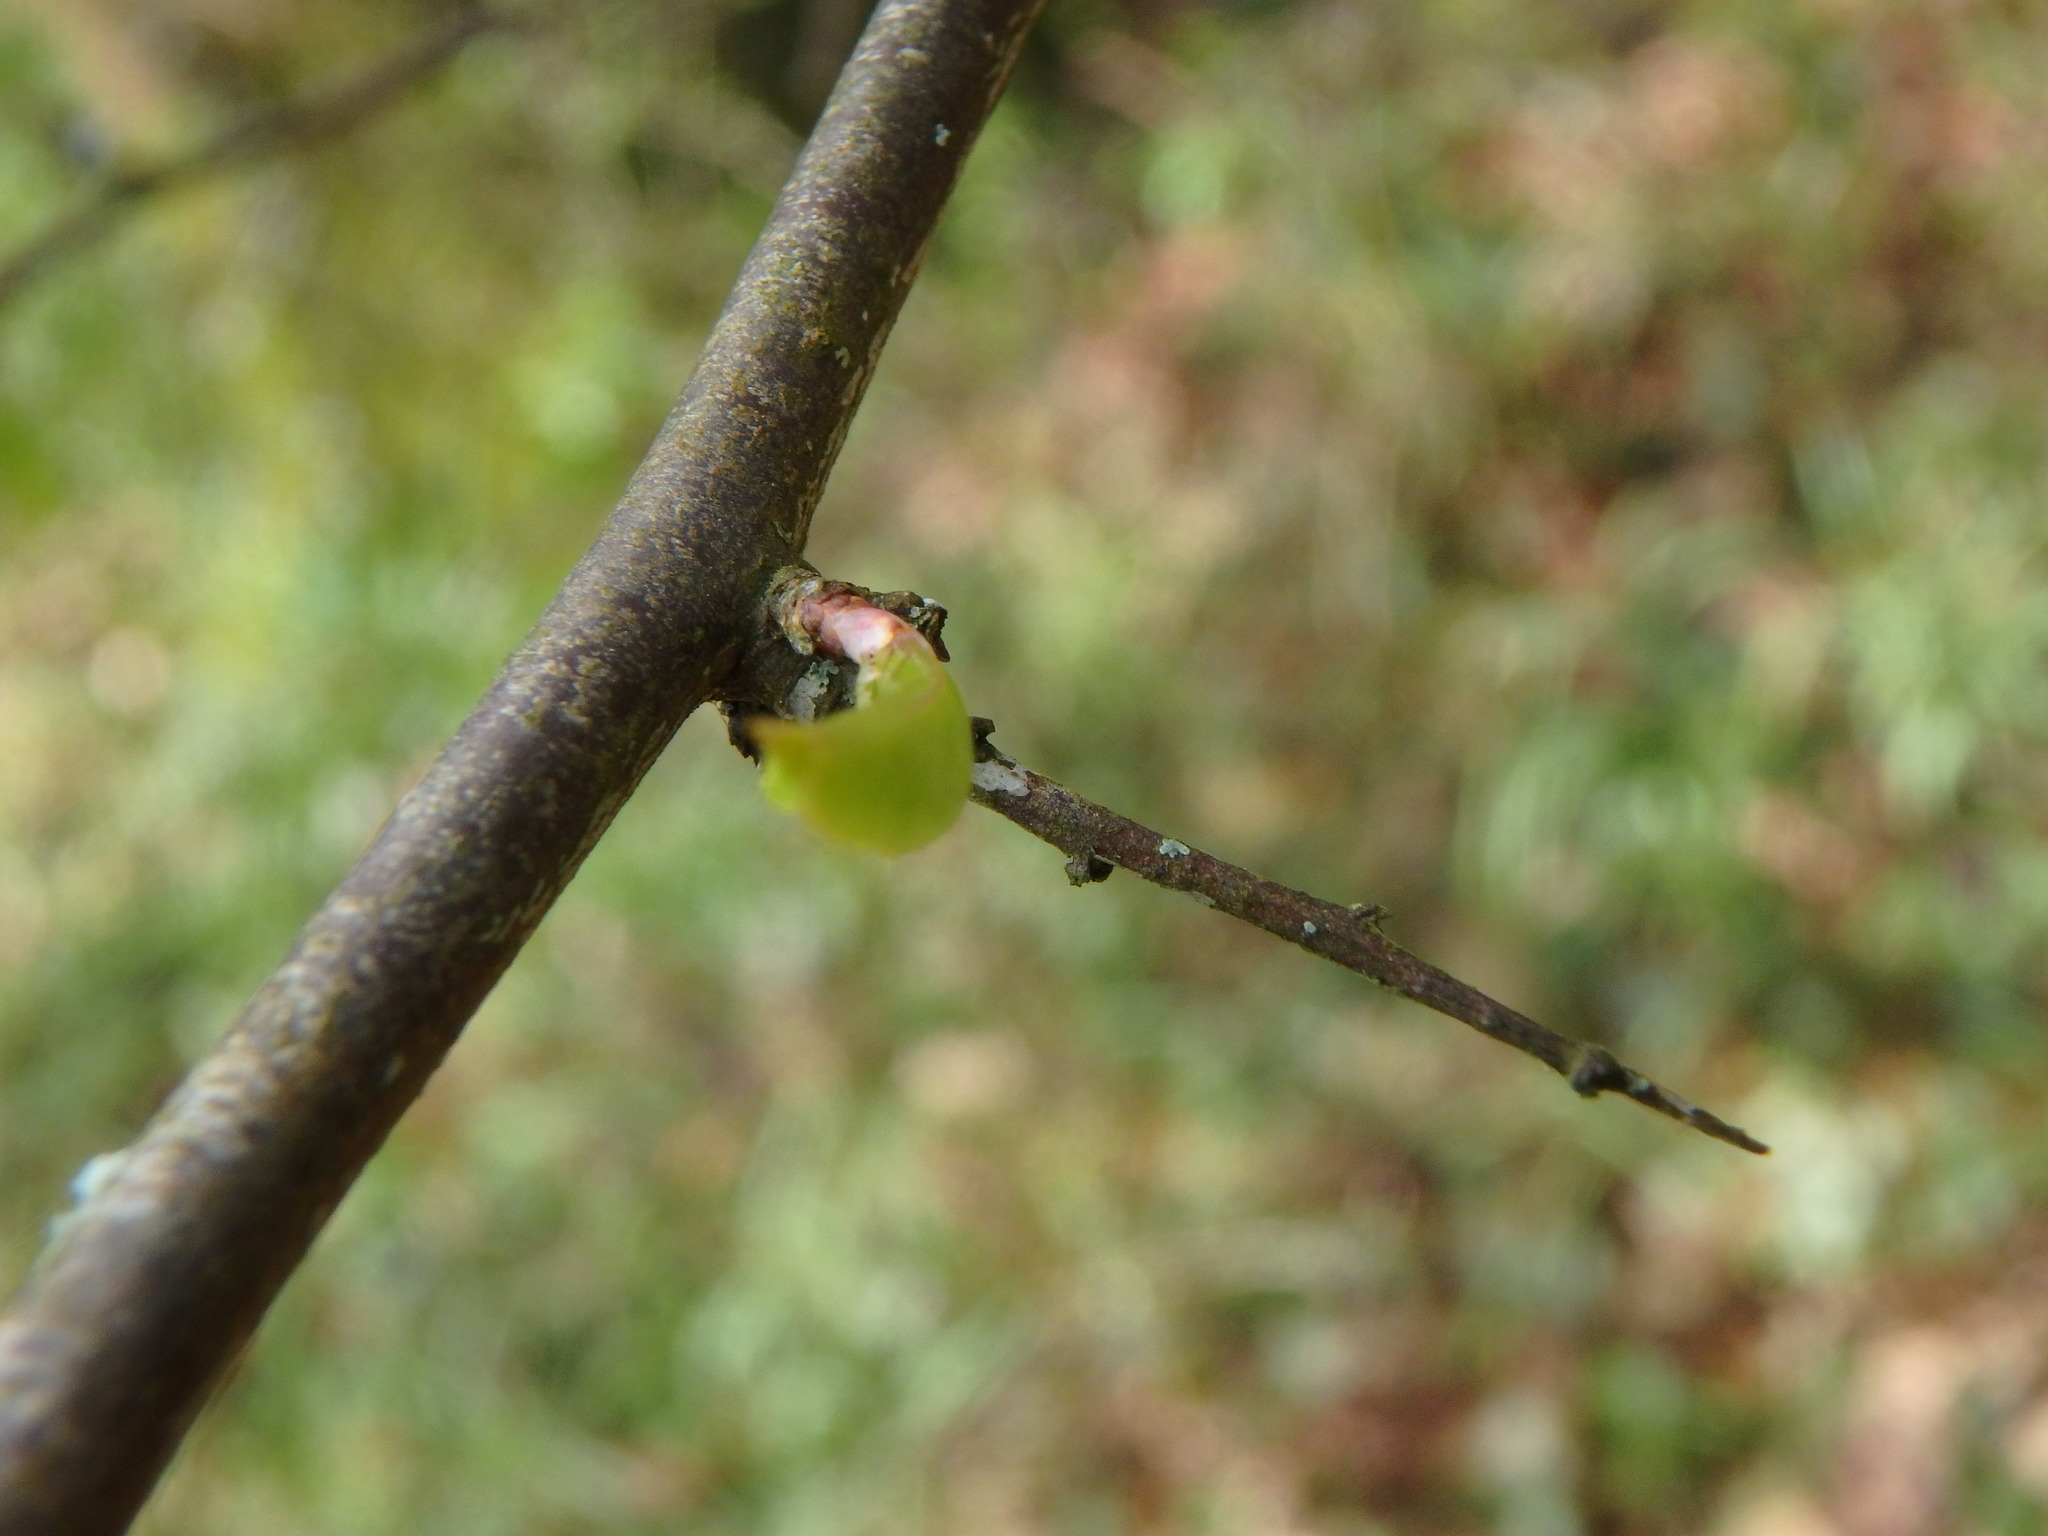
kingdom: Plantae
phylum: Tracheophyta
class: Magnoliopsida
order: Rosales
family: Rosaceae
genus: Prunus
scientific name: Prunus spinosa
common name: Blackthorn
